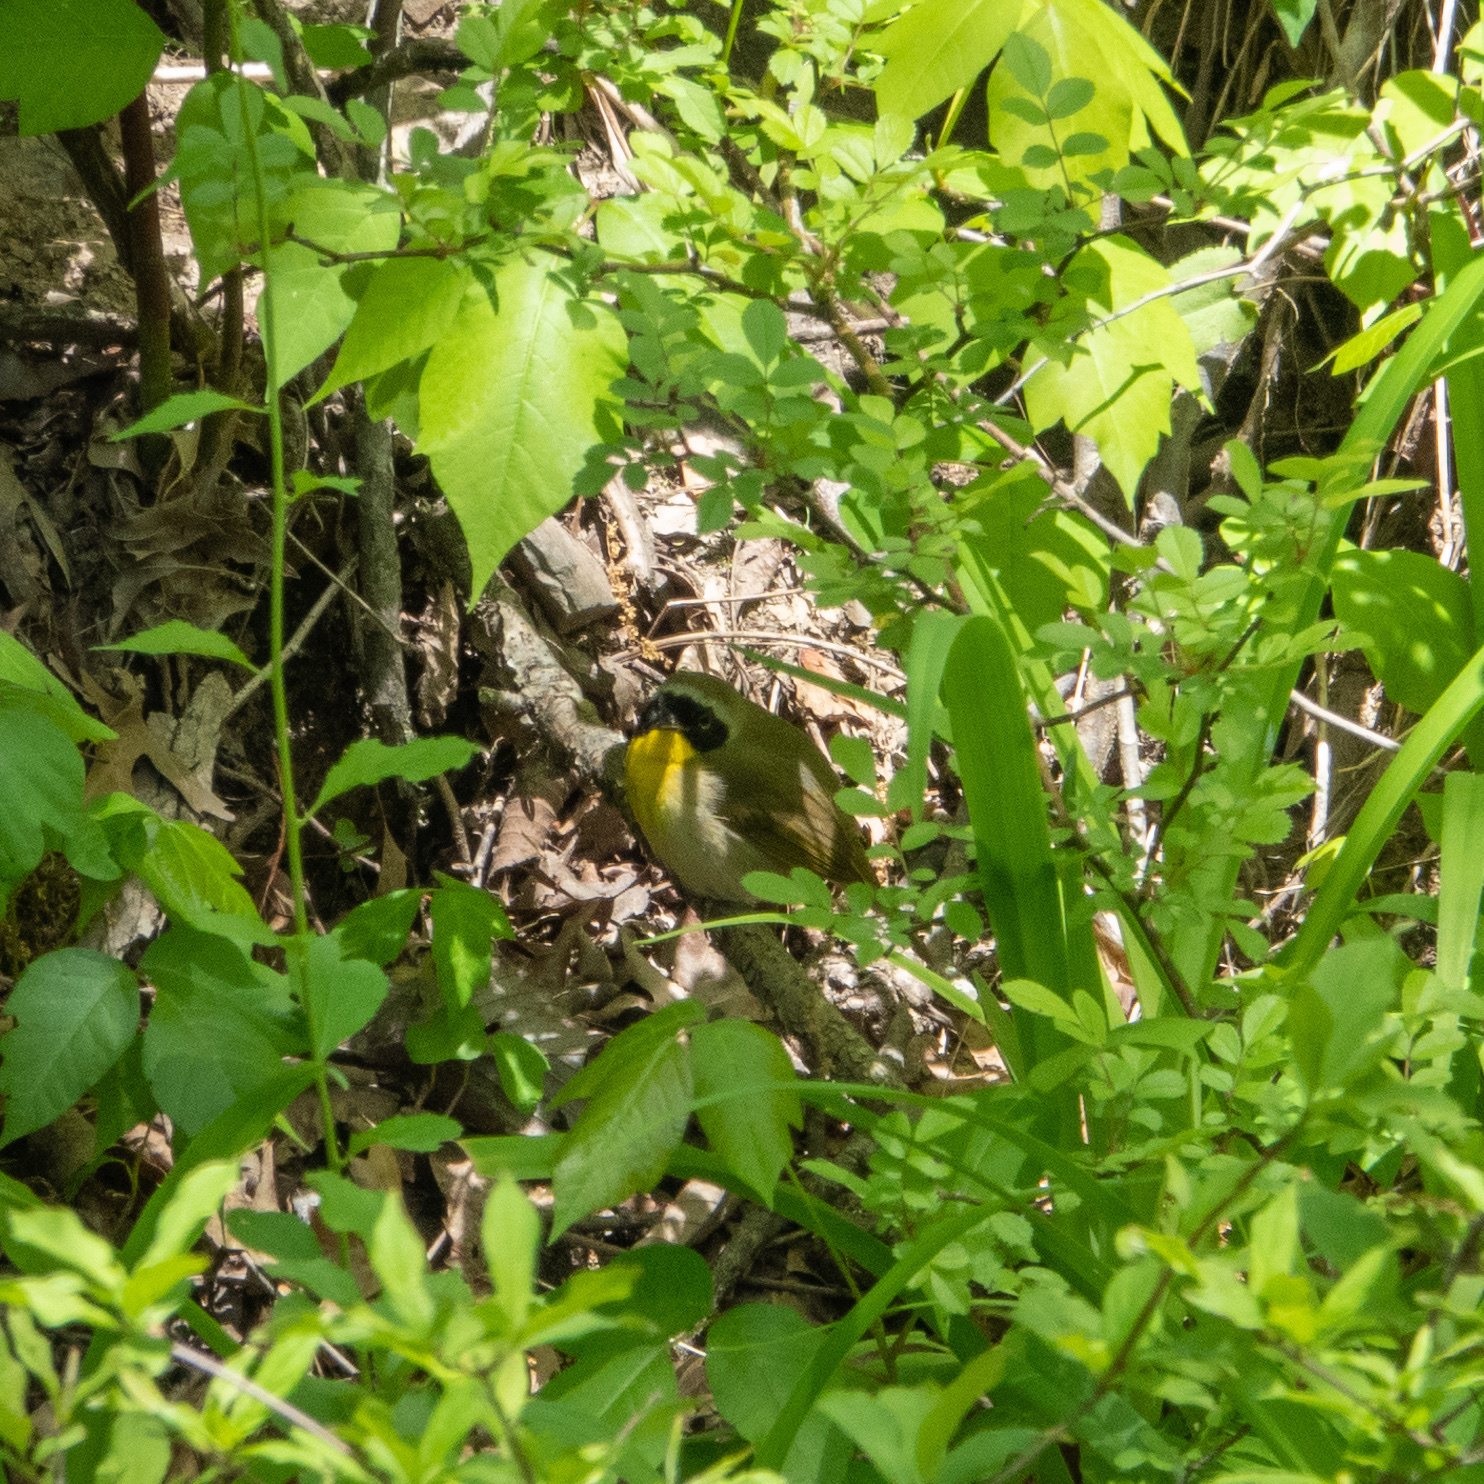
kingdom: Animalia
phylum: Chordata
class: Aves
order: Passeriformes
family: Parulidae
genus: Geothlypis
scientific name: Geothlypis trichas
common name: Common yellowthroat
